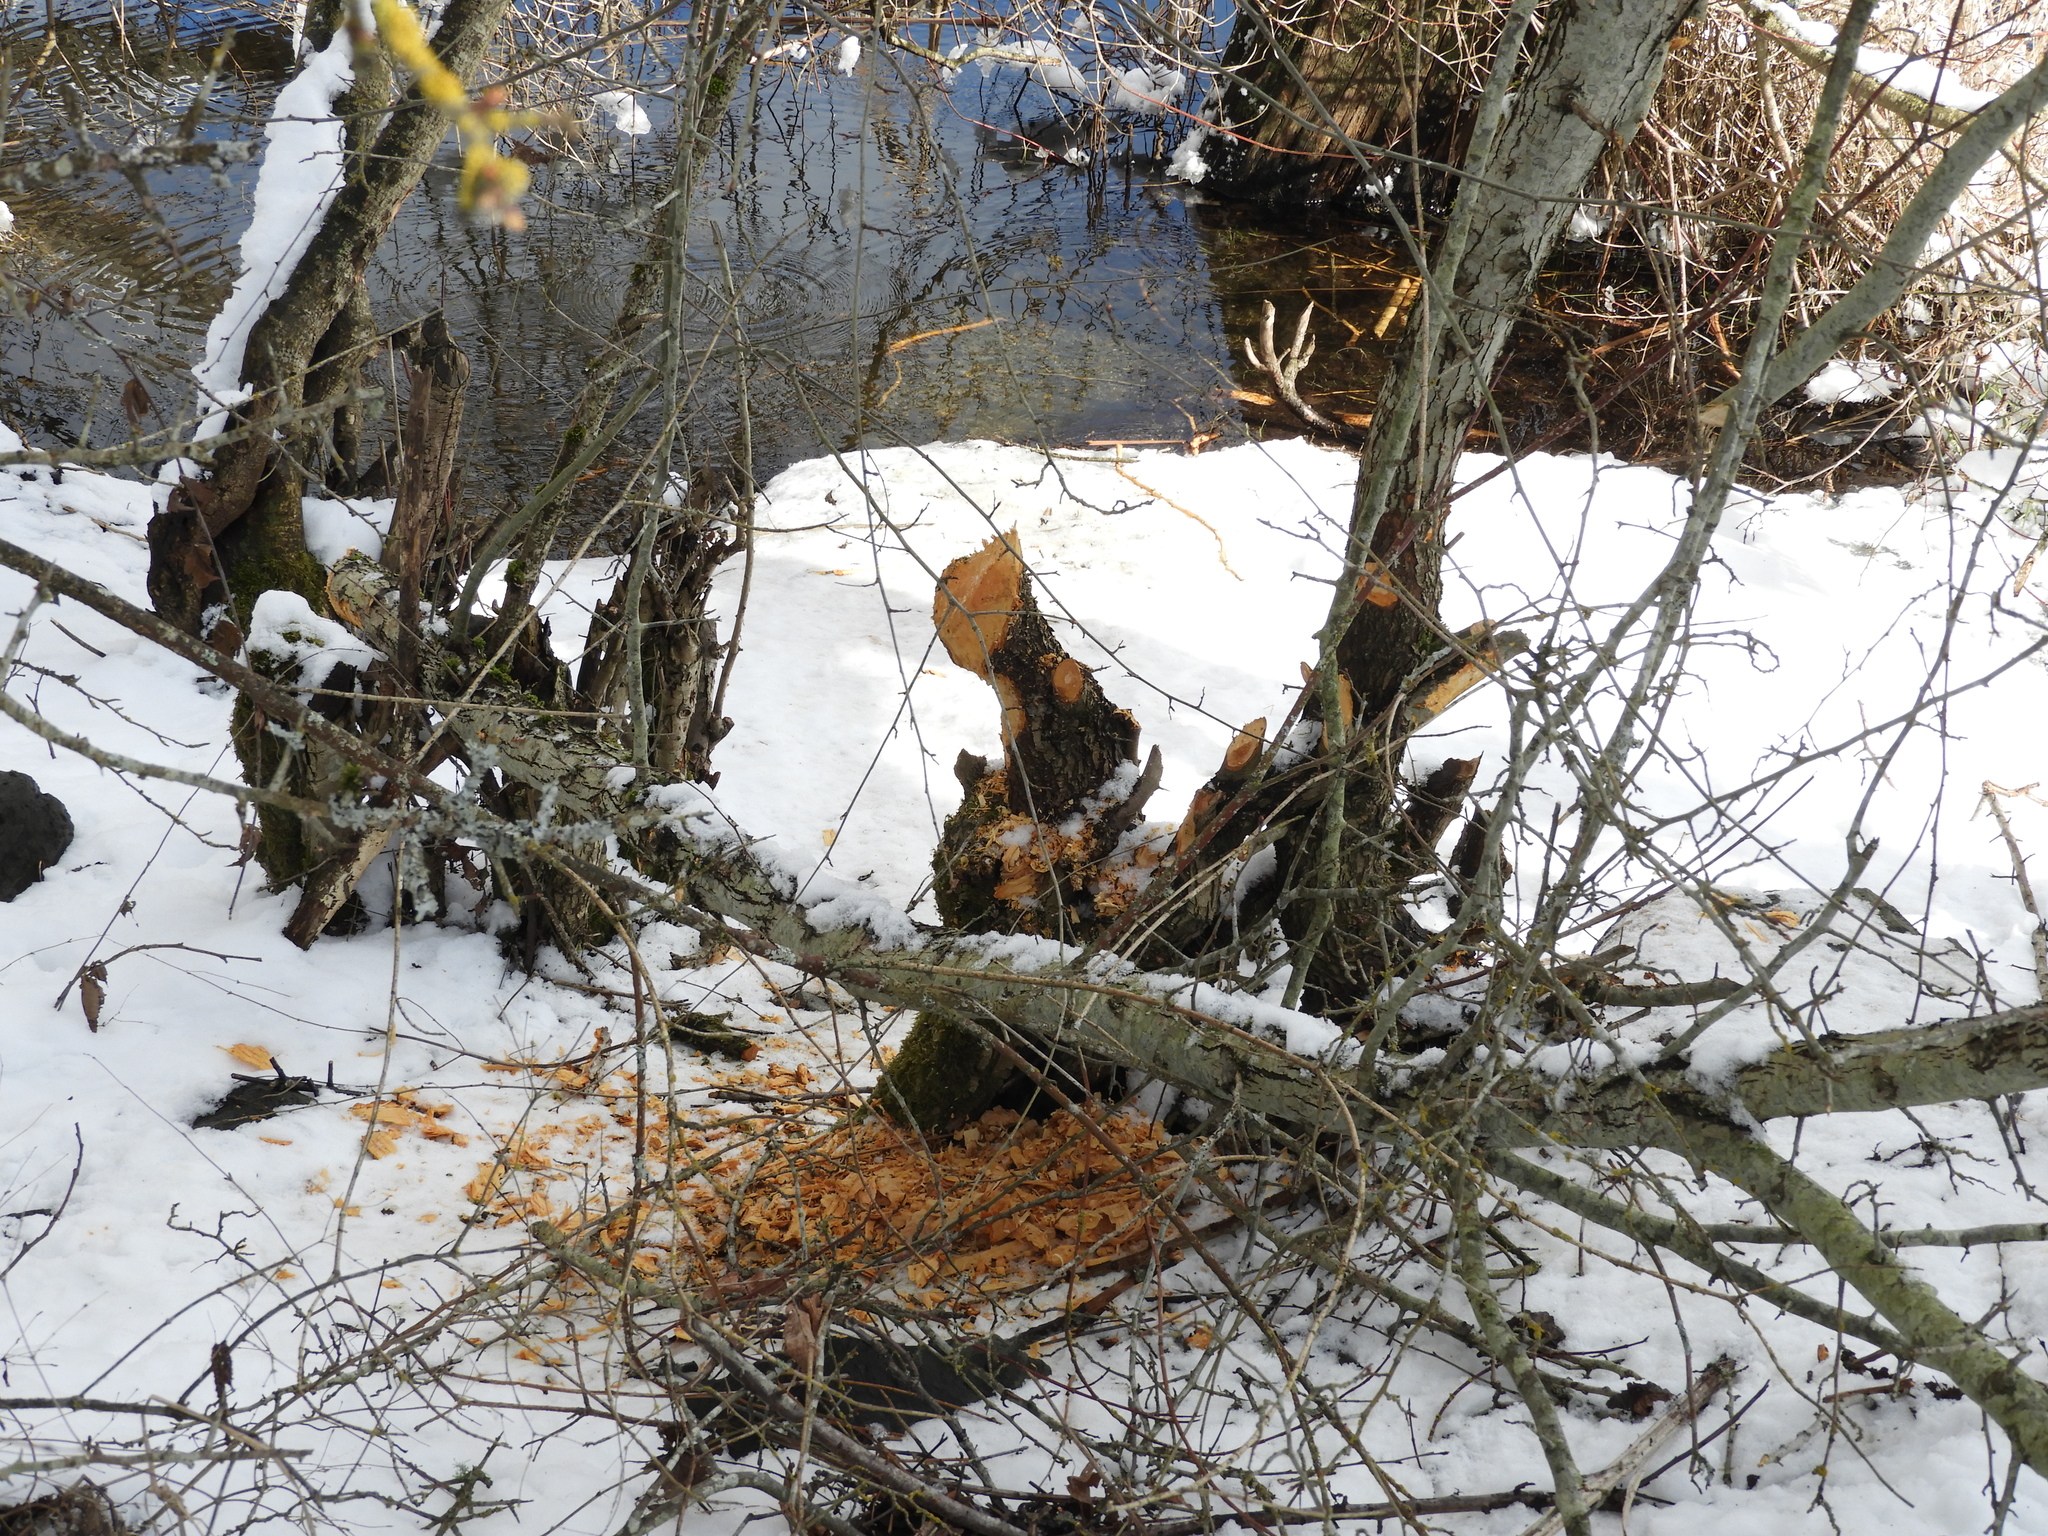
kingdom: Animalia
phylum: Chordata
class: Mammalia
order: Rodentia
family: Castoridae
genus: Castor
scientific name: Castor canadensis
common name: American beaver
